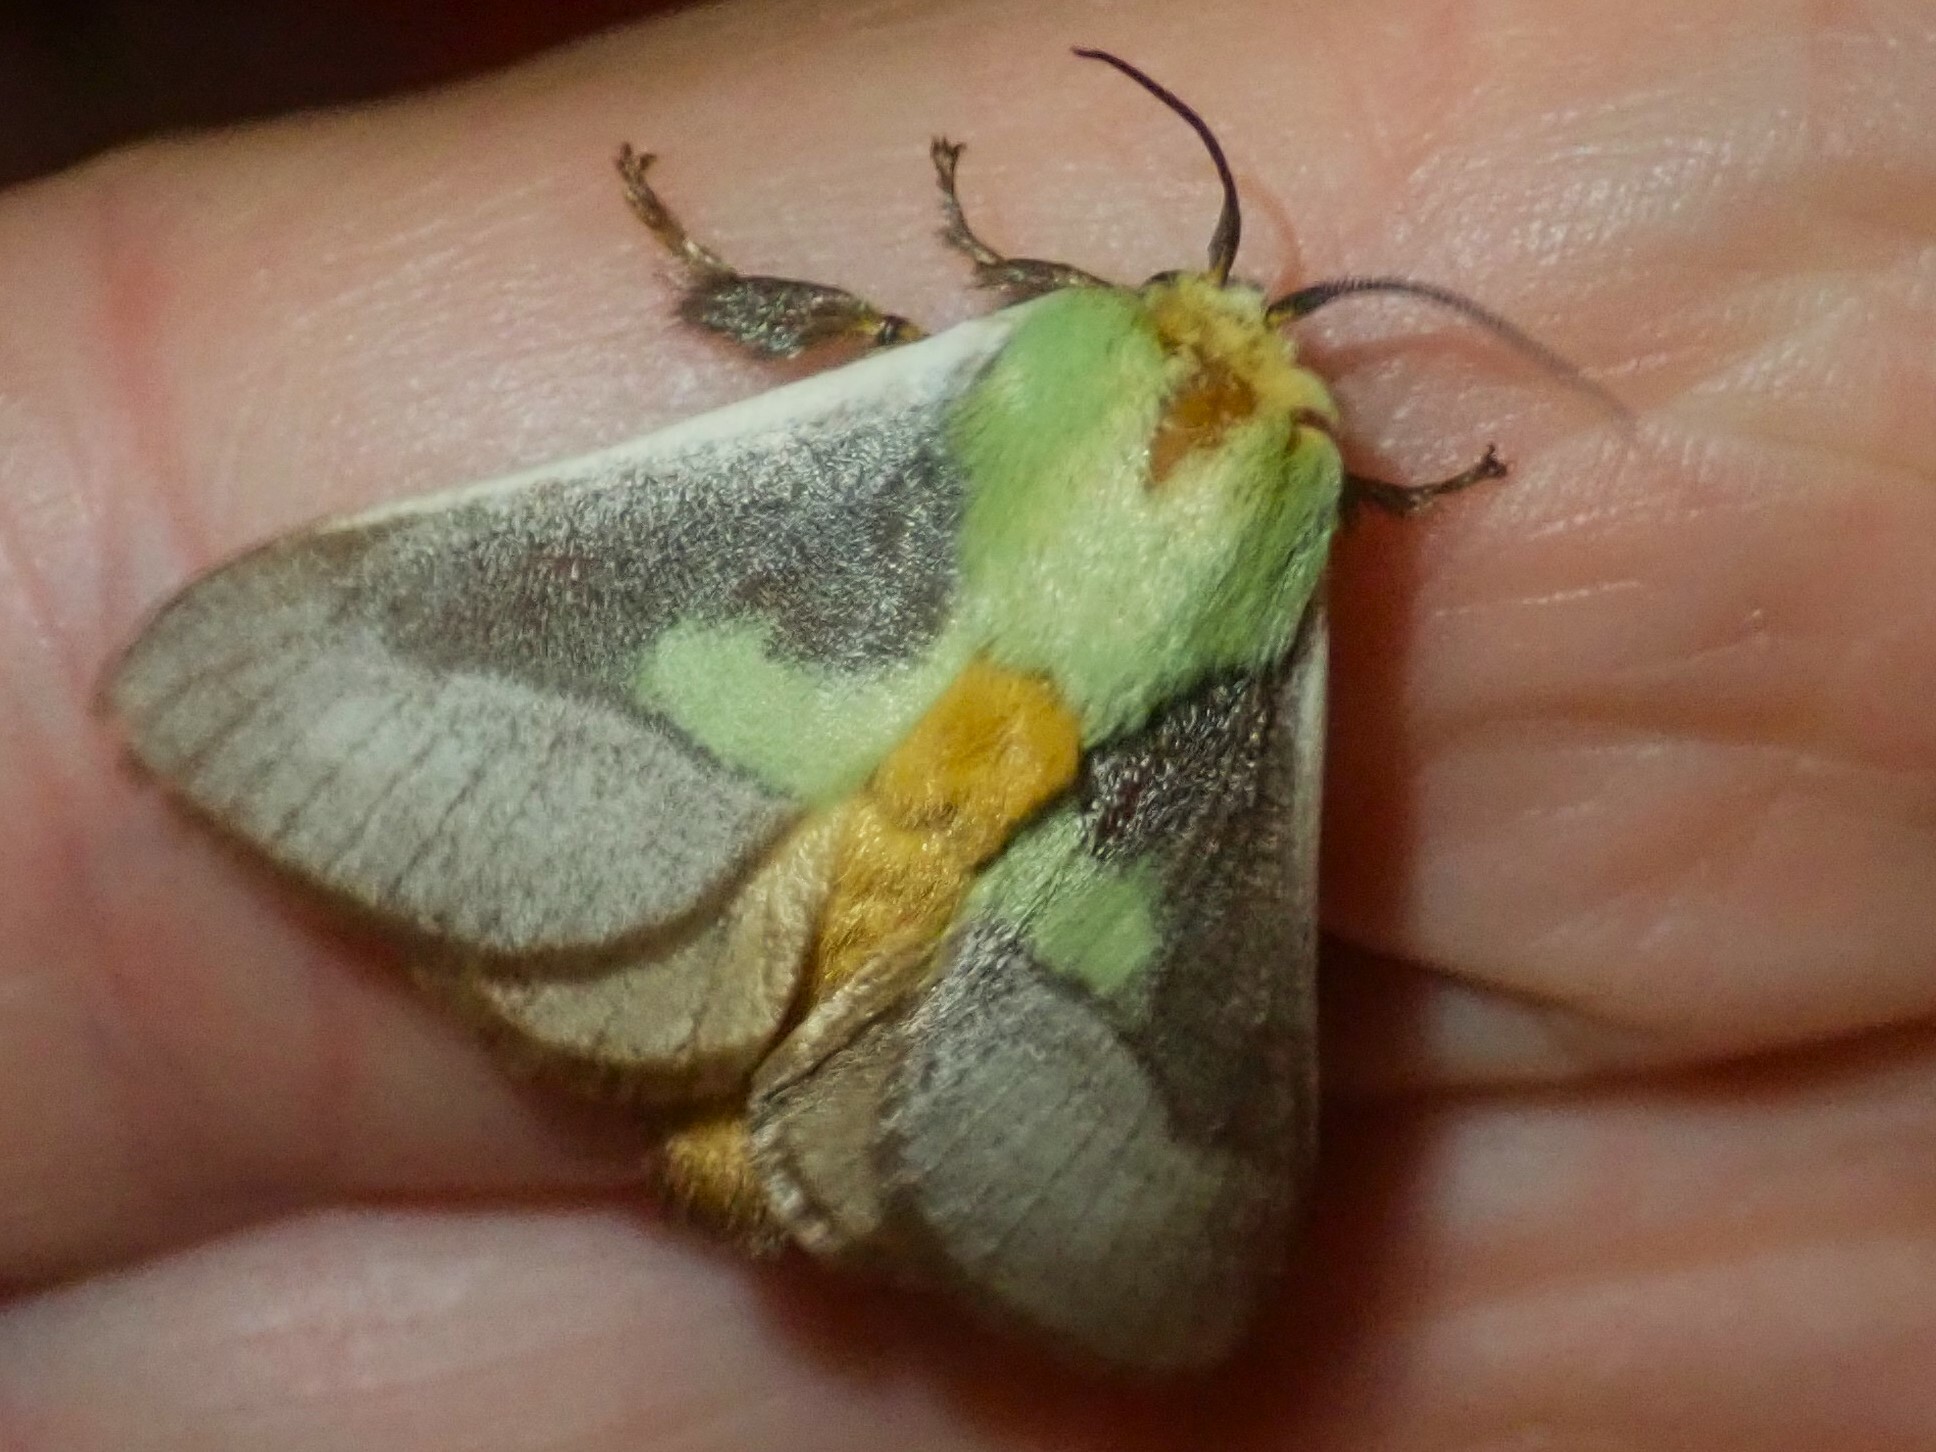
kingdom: Animalia
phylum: Arthropoda
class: Insecta
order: Lepidoptera
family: Limacodidae
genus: Latoia
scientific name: Latoia intermissa
